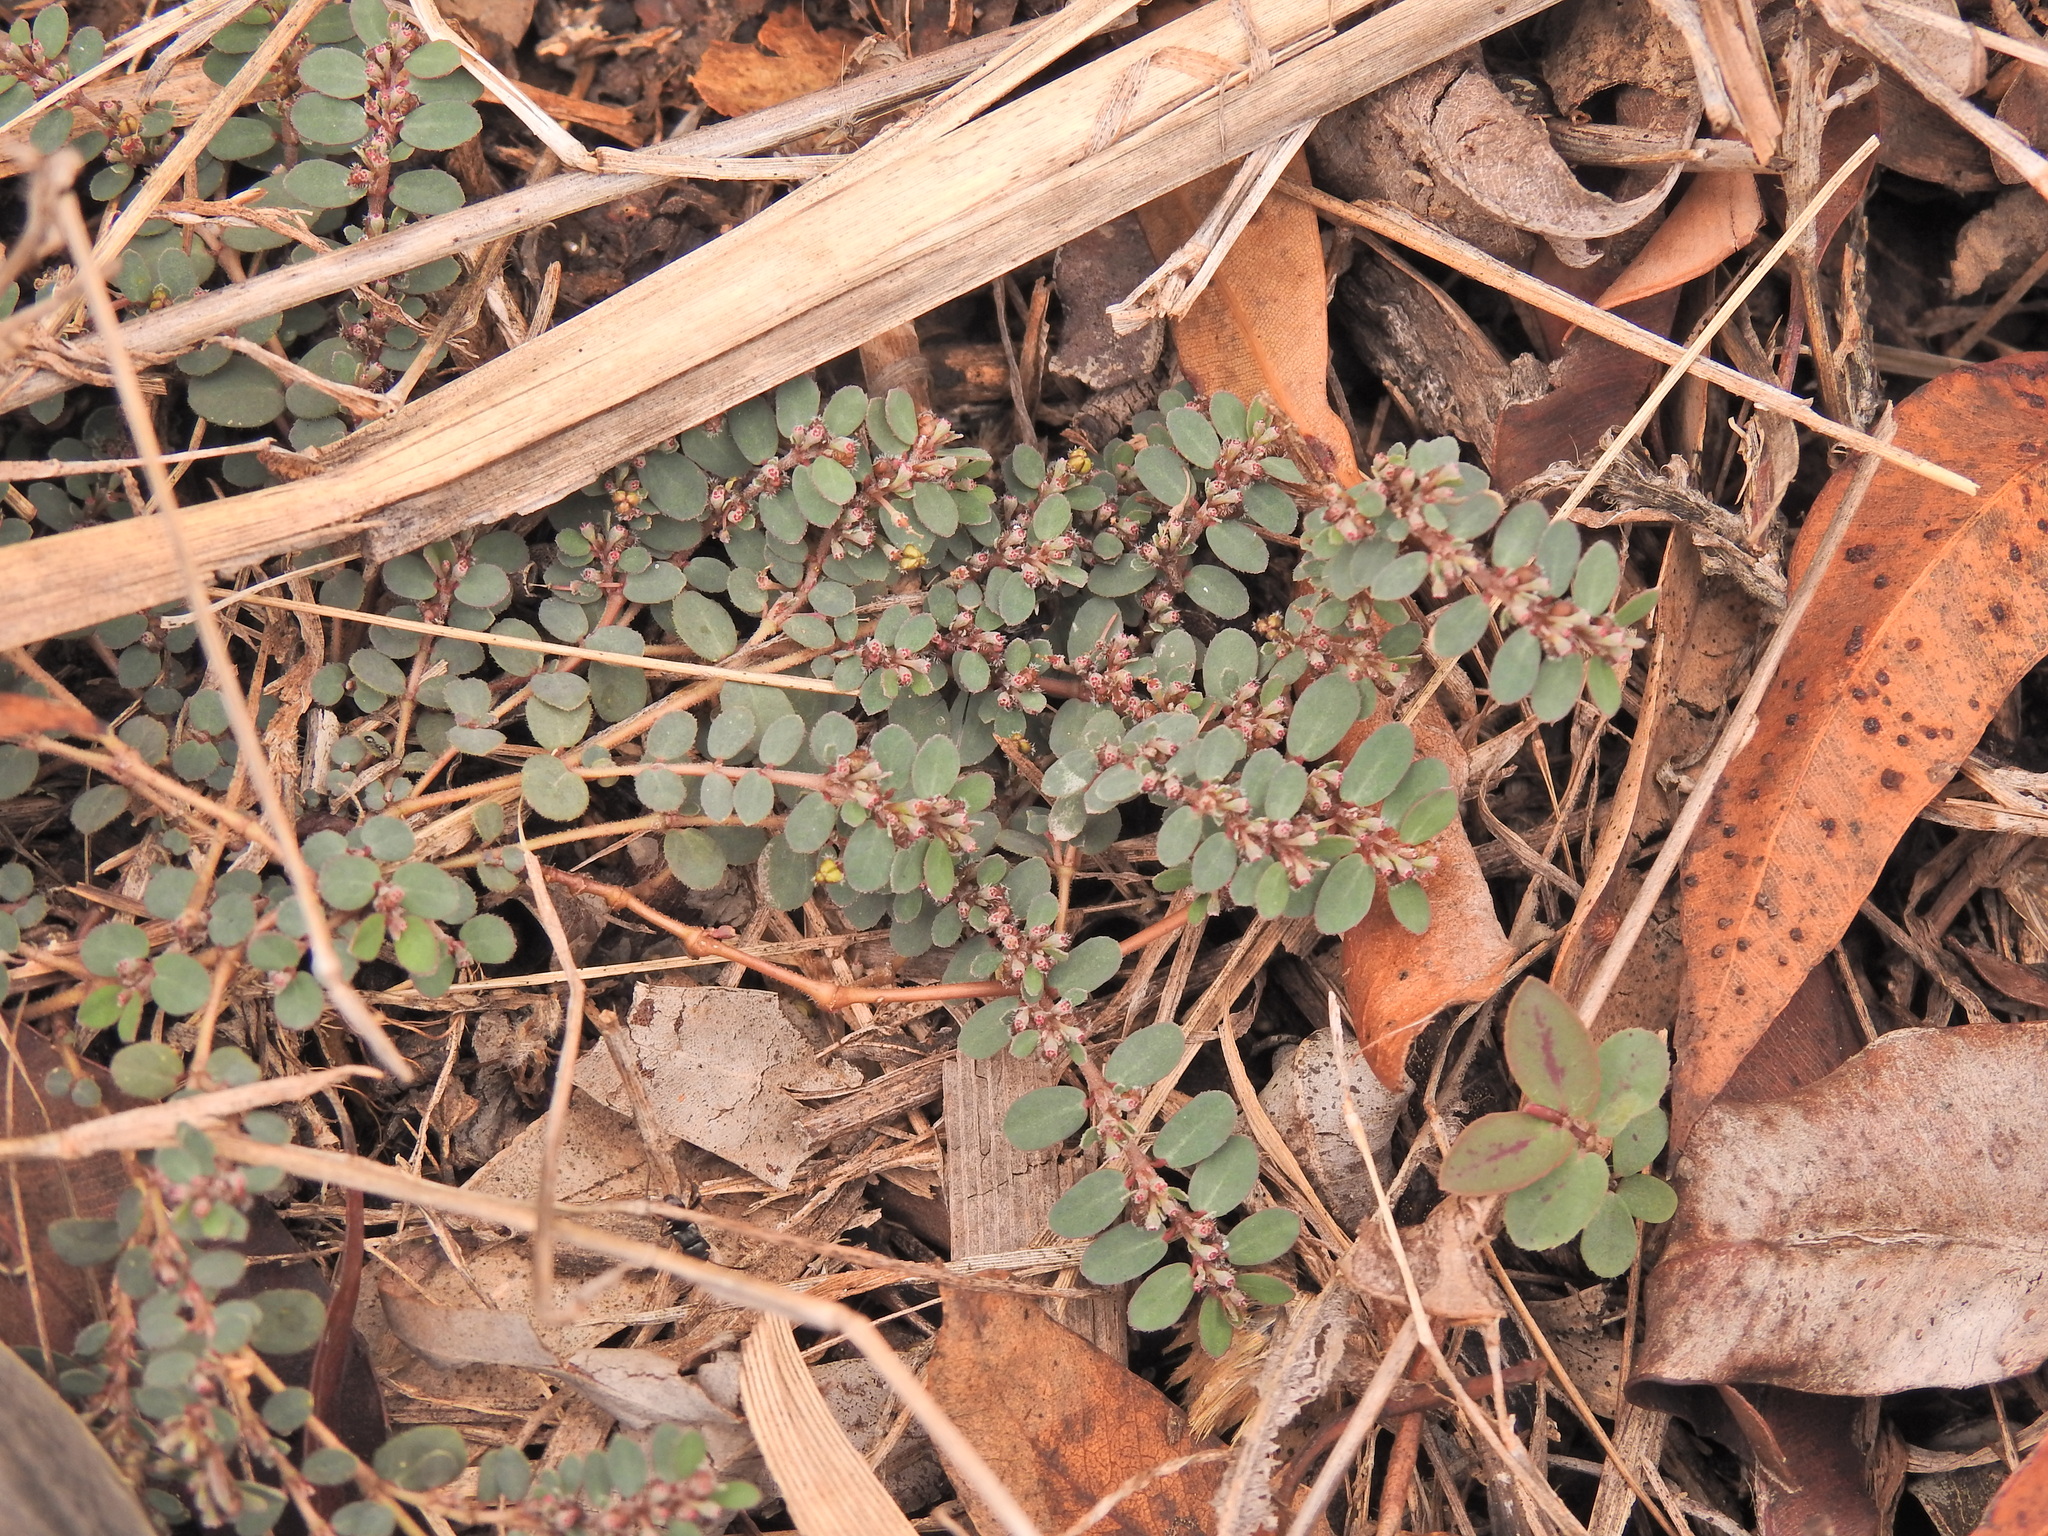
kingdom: Plantae
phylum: Tracheophyta
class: Magnoliopsida
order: Malpighiales
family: Euphorbiaceae
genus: Euphorbia
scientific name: Euphorbia prostrata
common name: Prostrate sandmat
